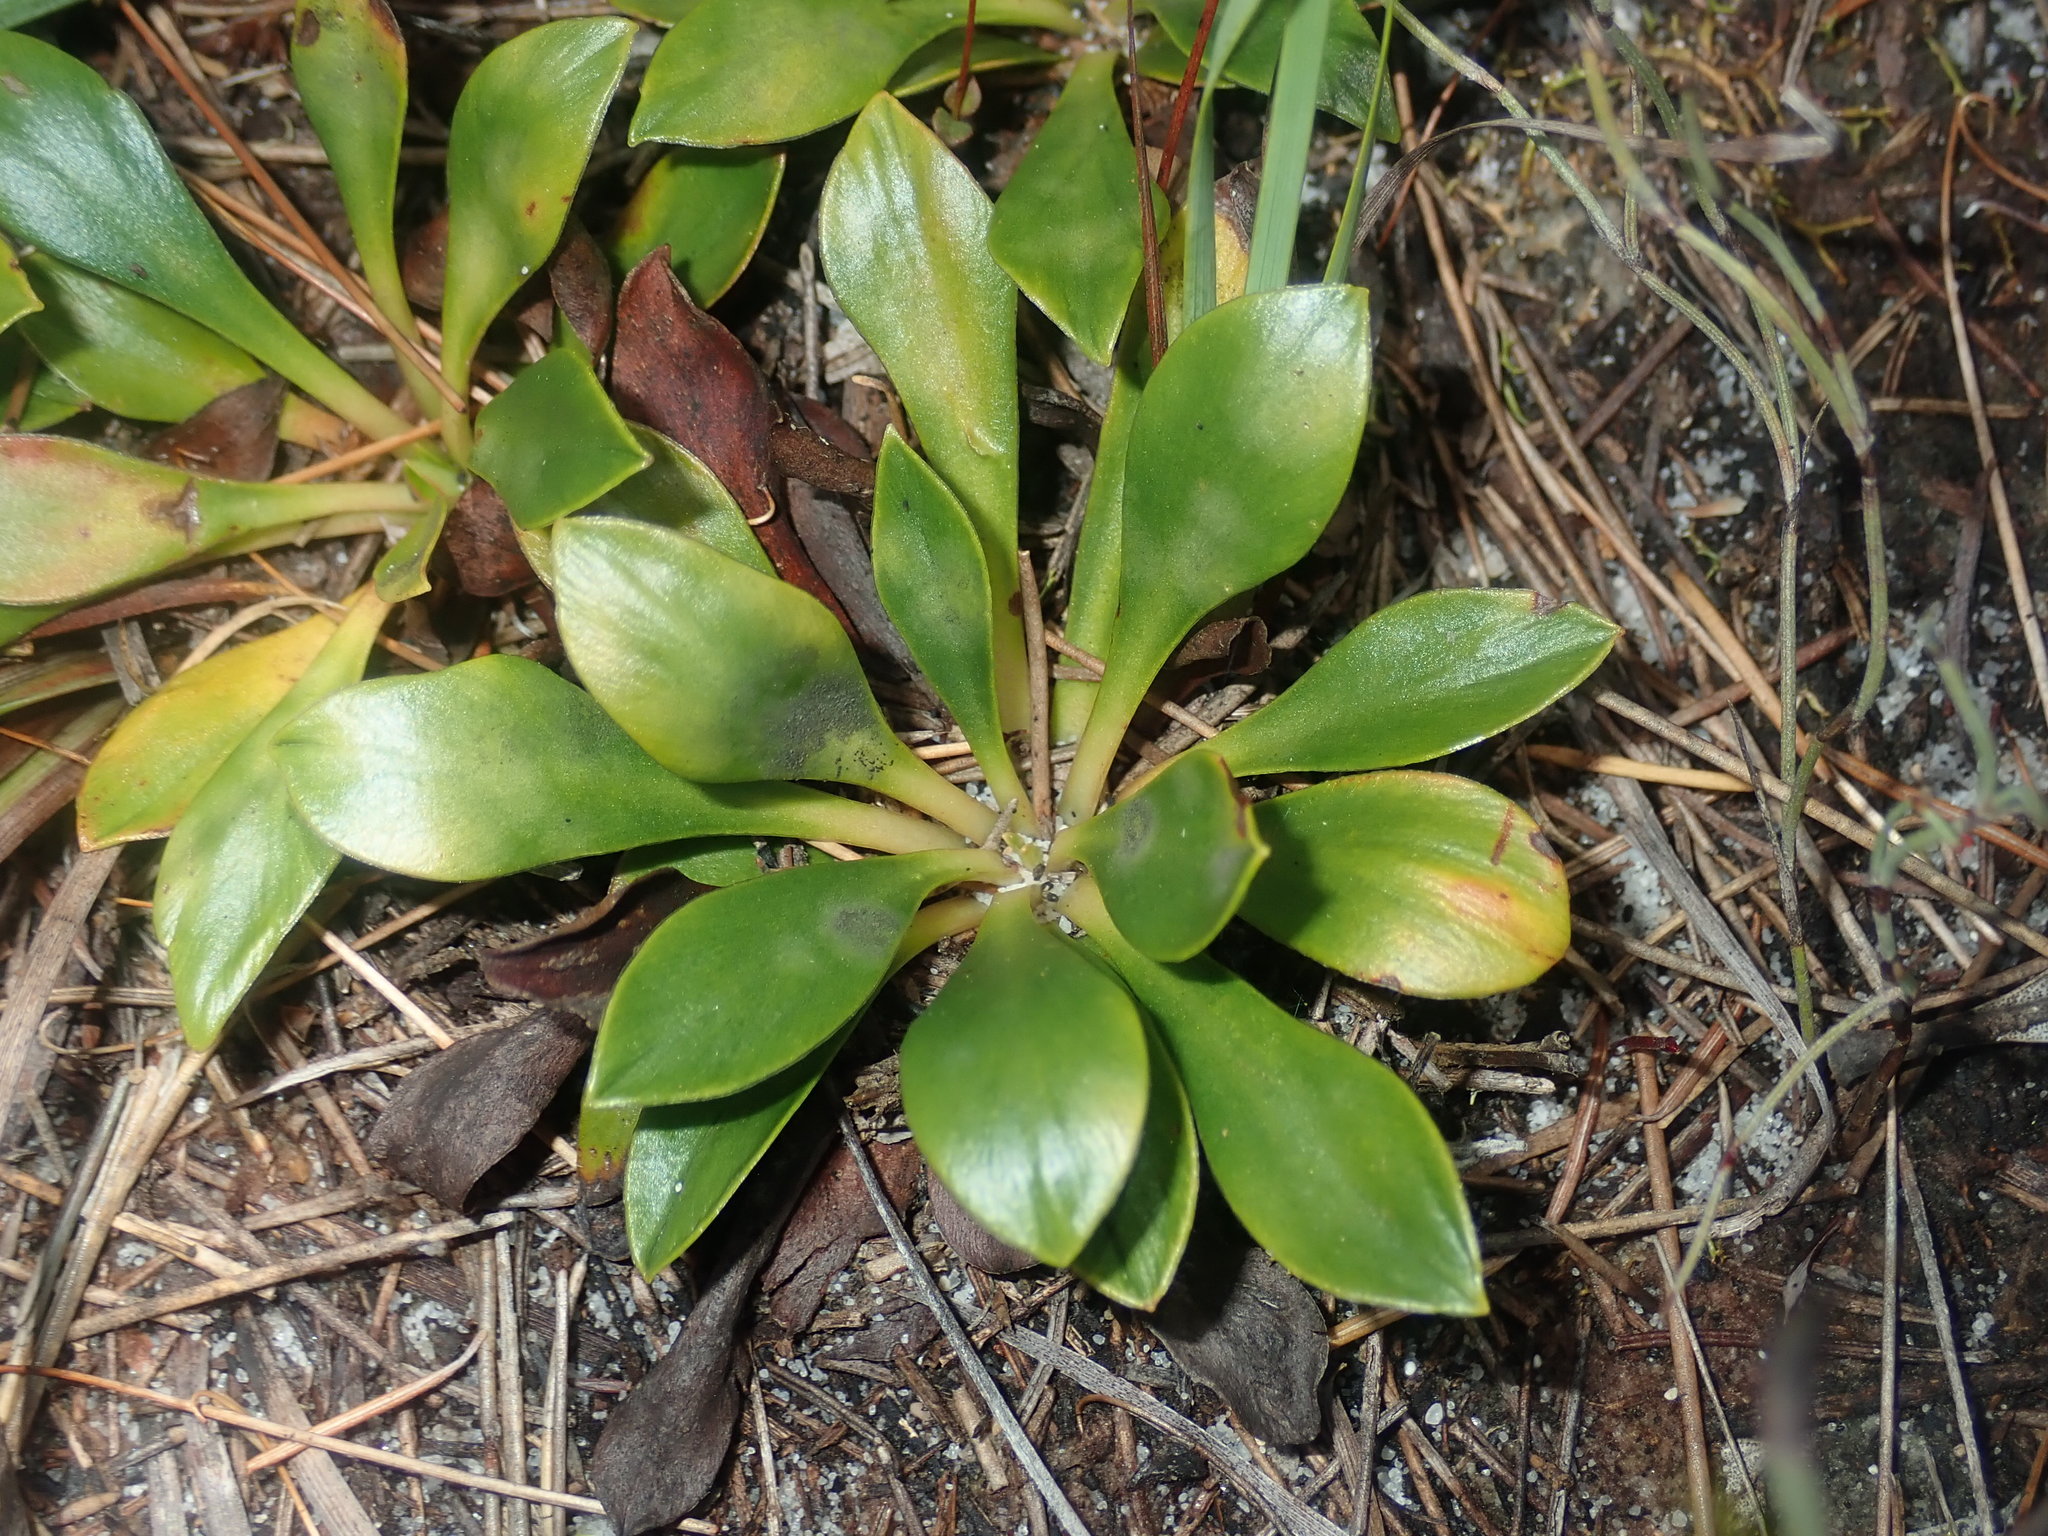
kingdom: Plantae
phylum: Tracheophyta
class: Magnoliopsida
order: Asterales
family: Stylidiaceae
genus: Stylidium
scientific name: Stylidium ornatum
